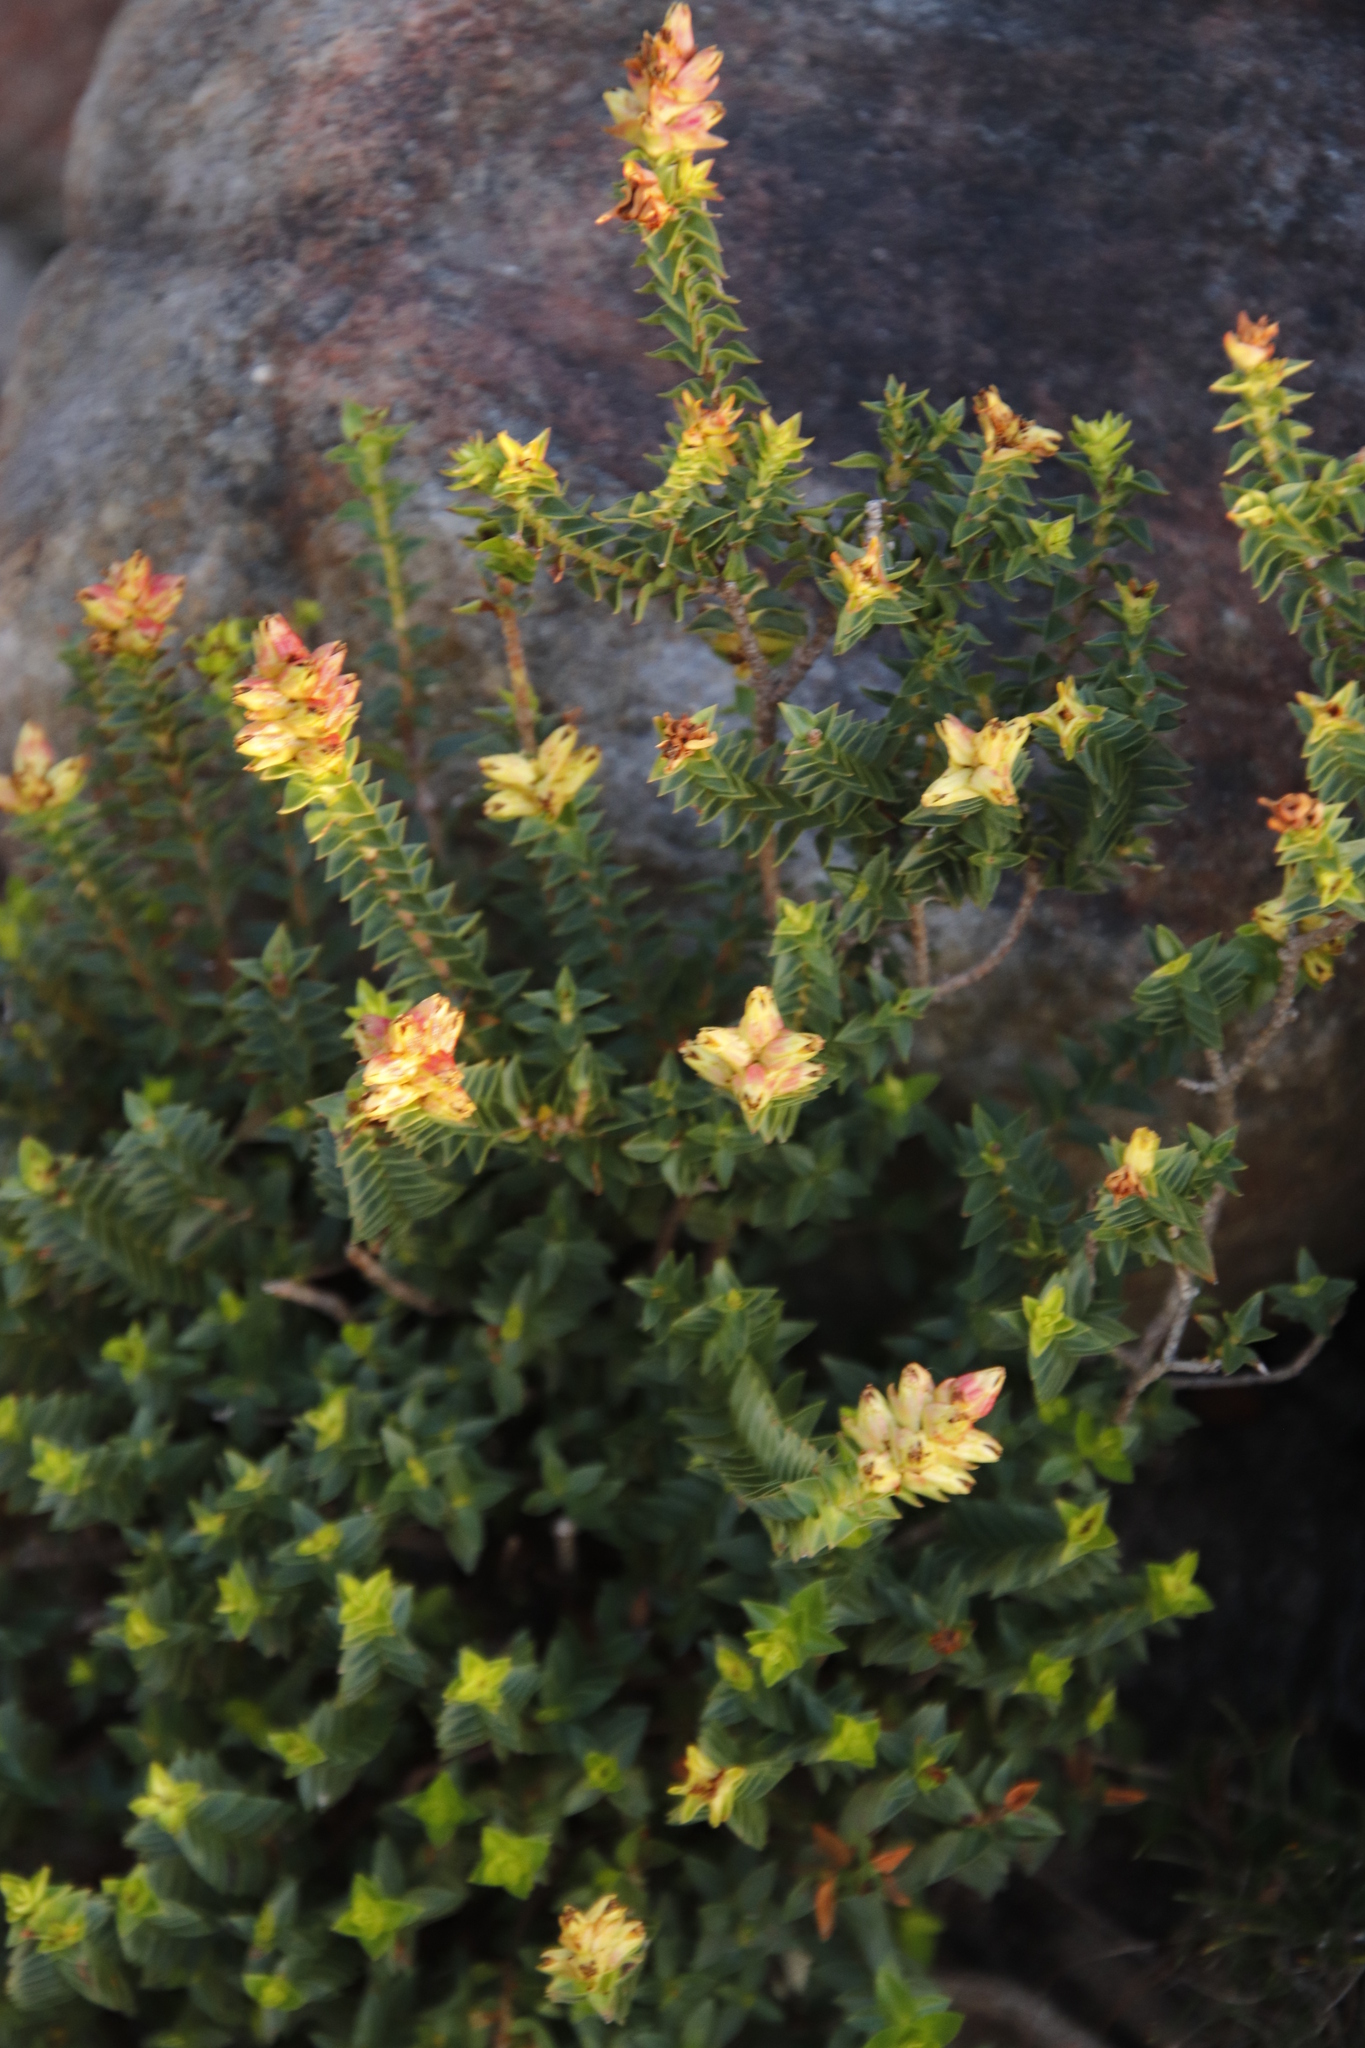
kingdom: Plantae
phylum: Tracheophyta
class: Magnoliopsida
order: Myrtales
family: Penaeaceae
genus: Penaea
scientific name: Penaea mucronata
